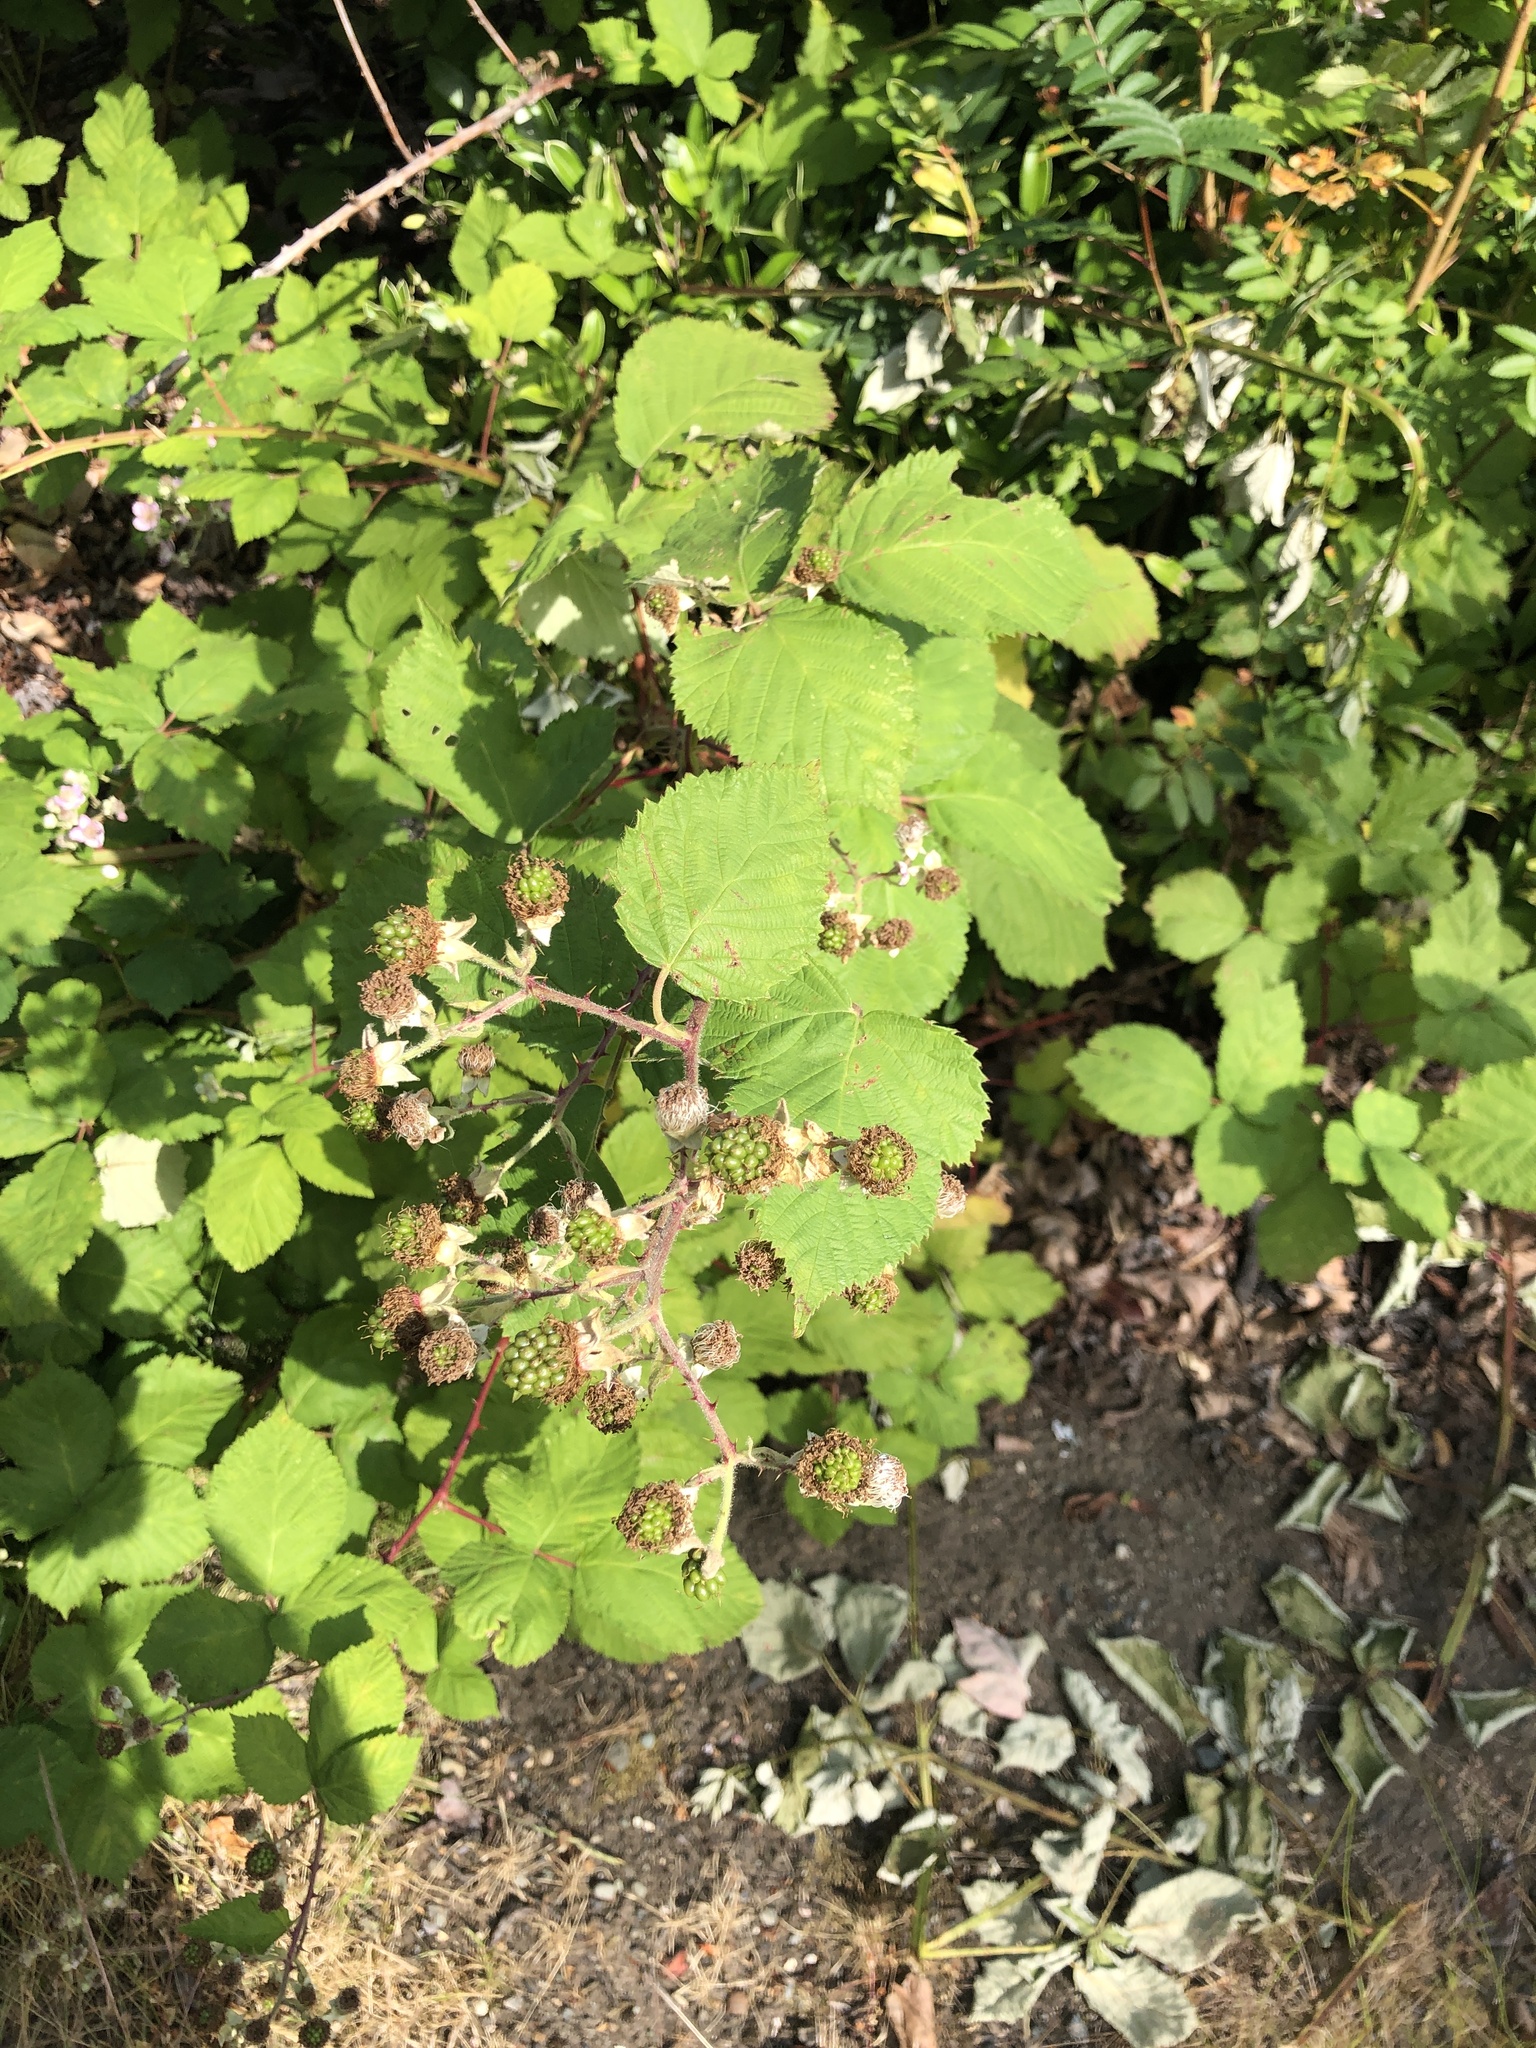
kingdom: Plantae
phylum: Tracheophyta
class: Magnoliopsida
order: Rosales
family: Rosaceae
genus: Rubus
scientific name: Rubus armeniacus
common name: Himalayan blackberry
